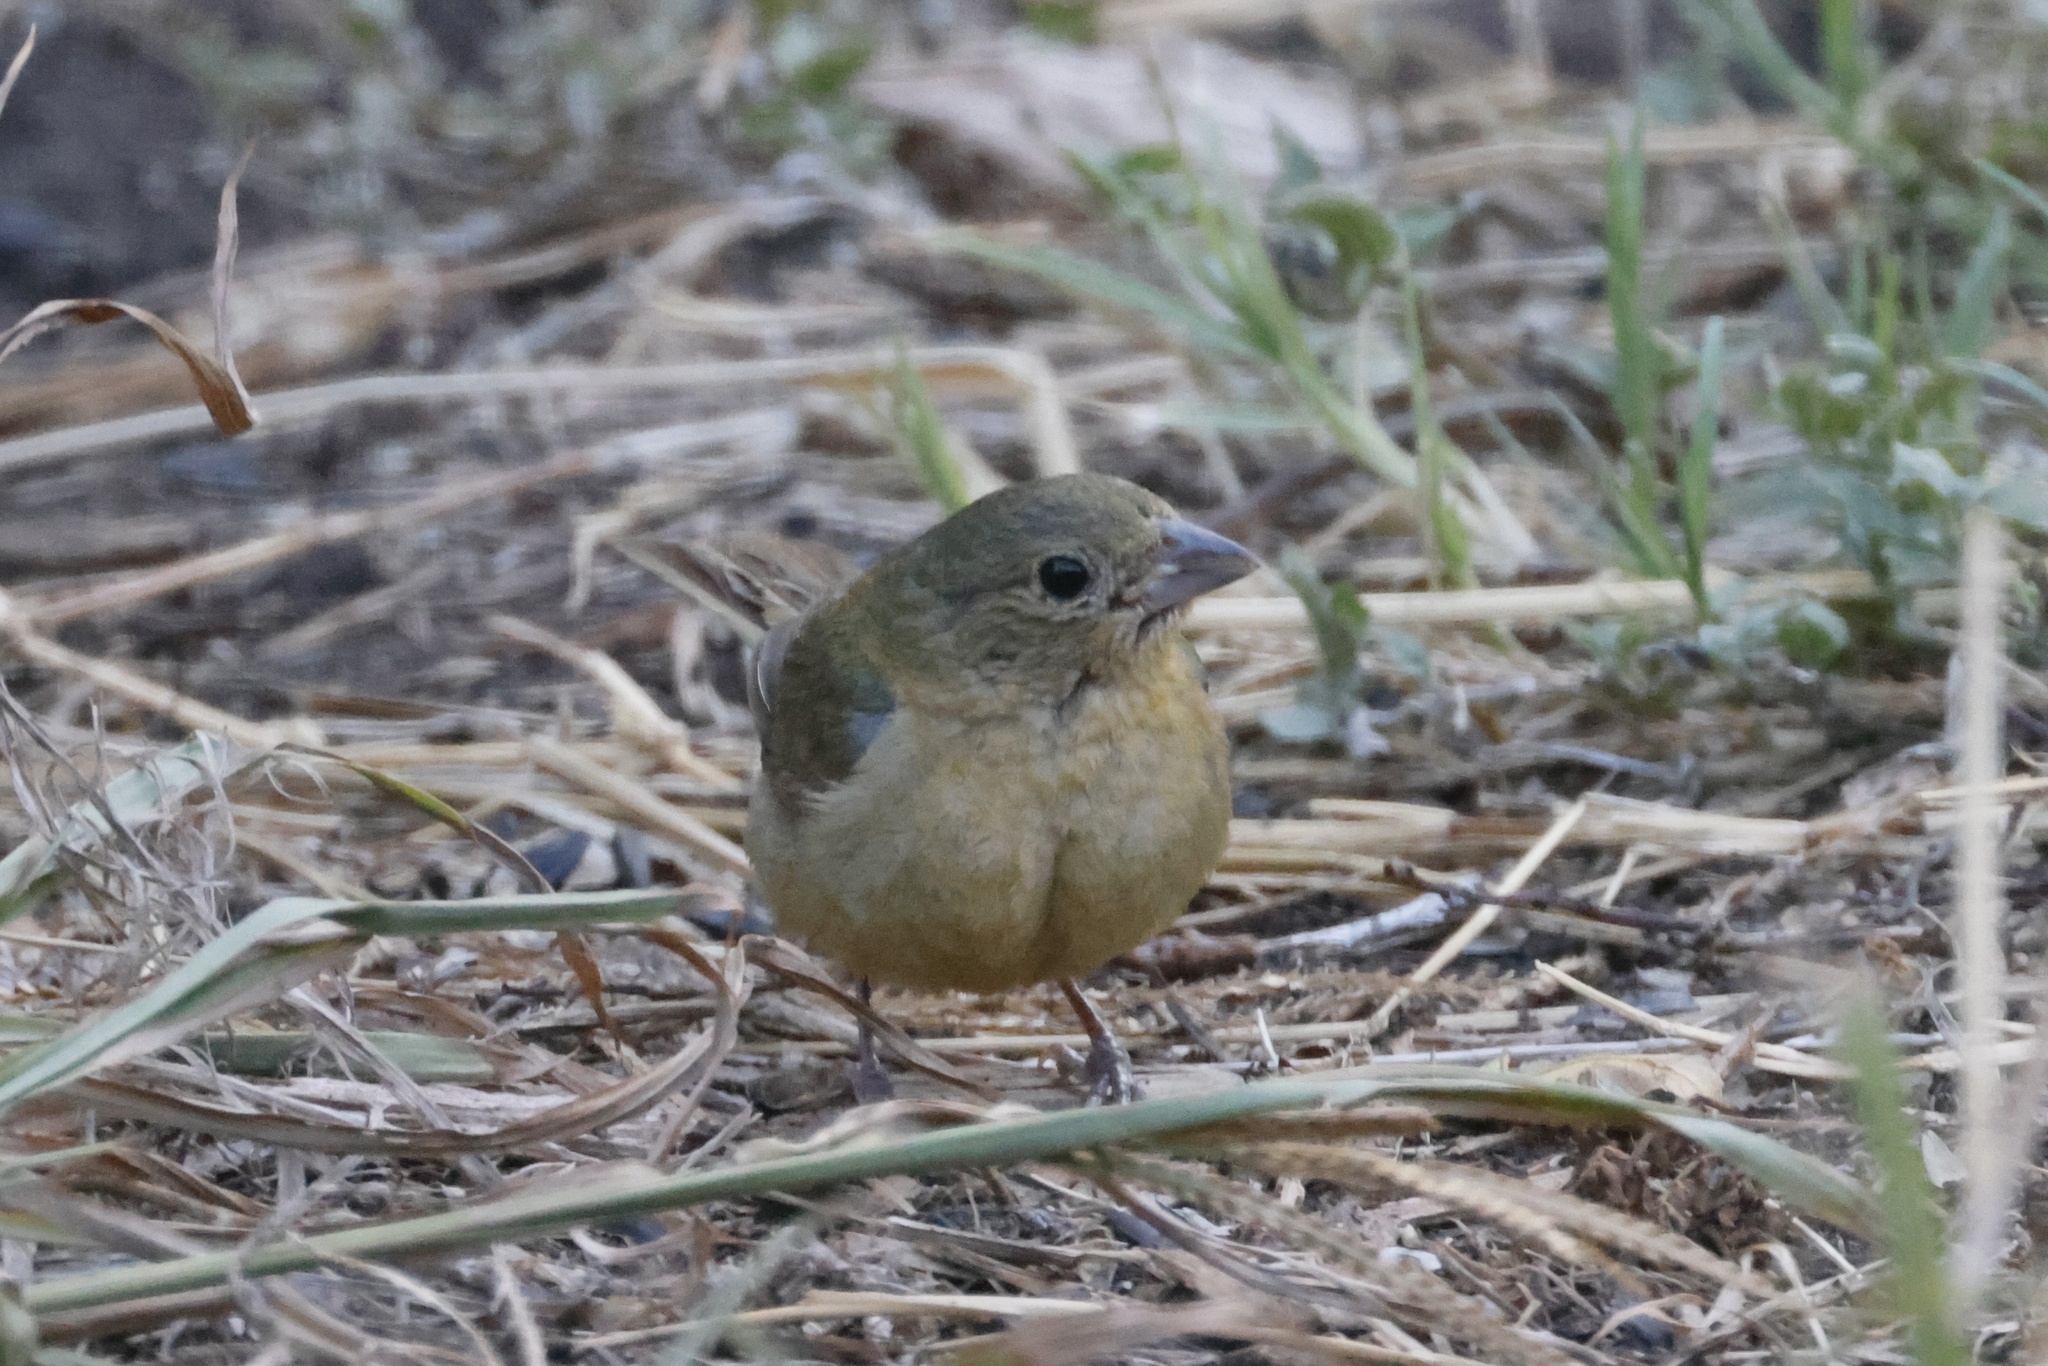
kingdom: Animalia
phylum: Chordata
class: Aves
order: Passeriformes
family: Cardinalidae
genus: Passerina
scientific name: Passerina ciris
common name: Painted bunting
